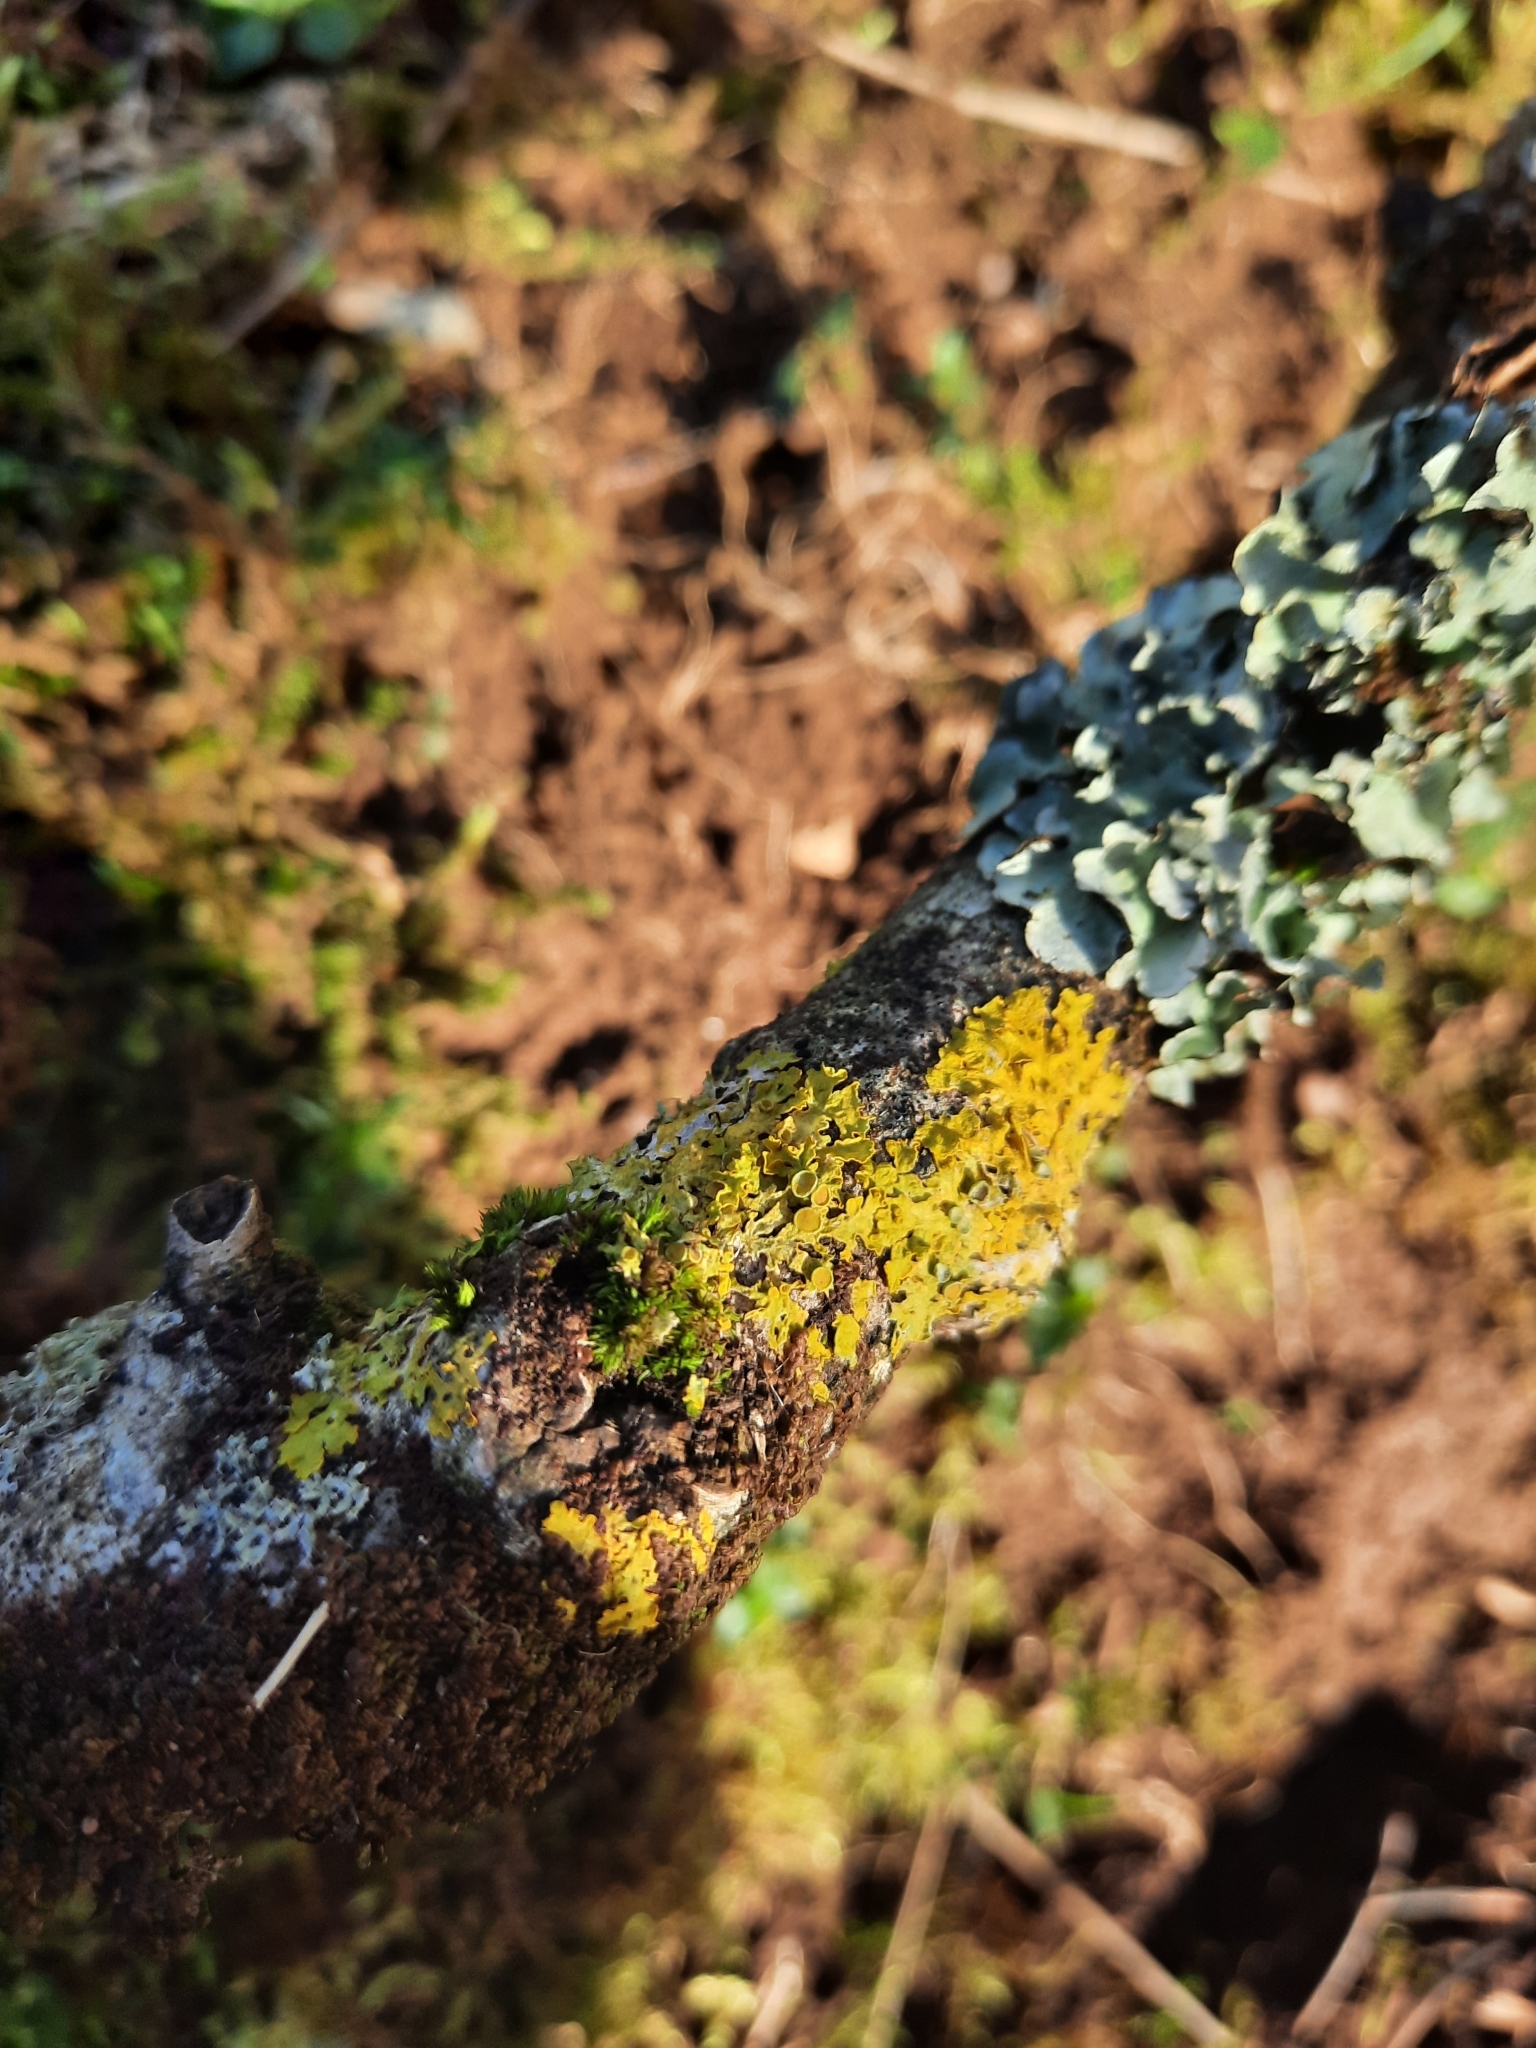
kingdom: Fungi
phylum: Ascomycota
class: Lecanoromycetes
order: Teloschistales
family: Teloschistaceae
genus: Xanthoria
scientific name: Xanthoria parietina
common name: Common orange lichen
